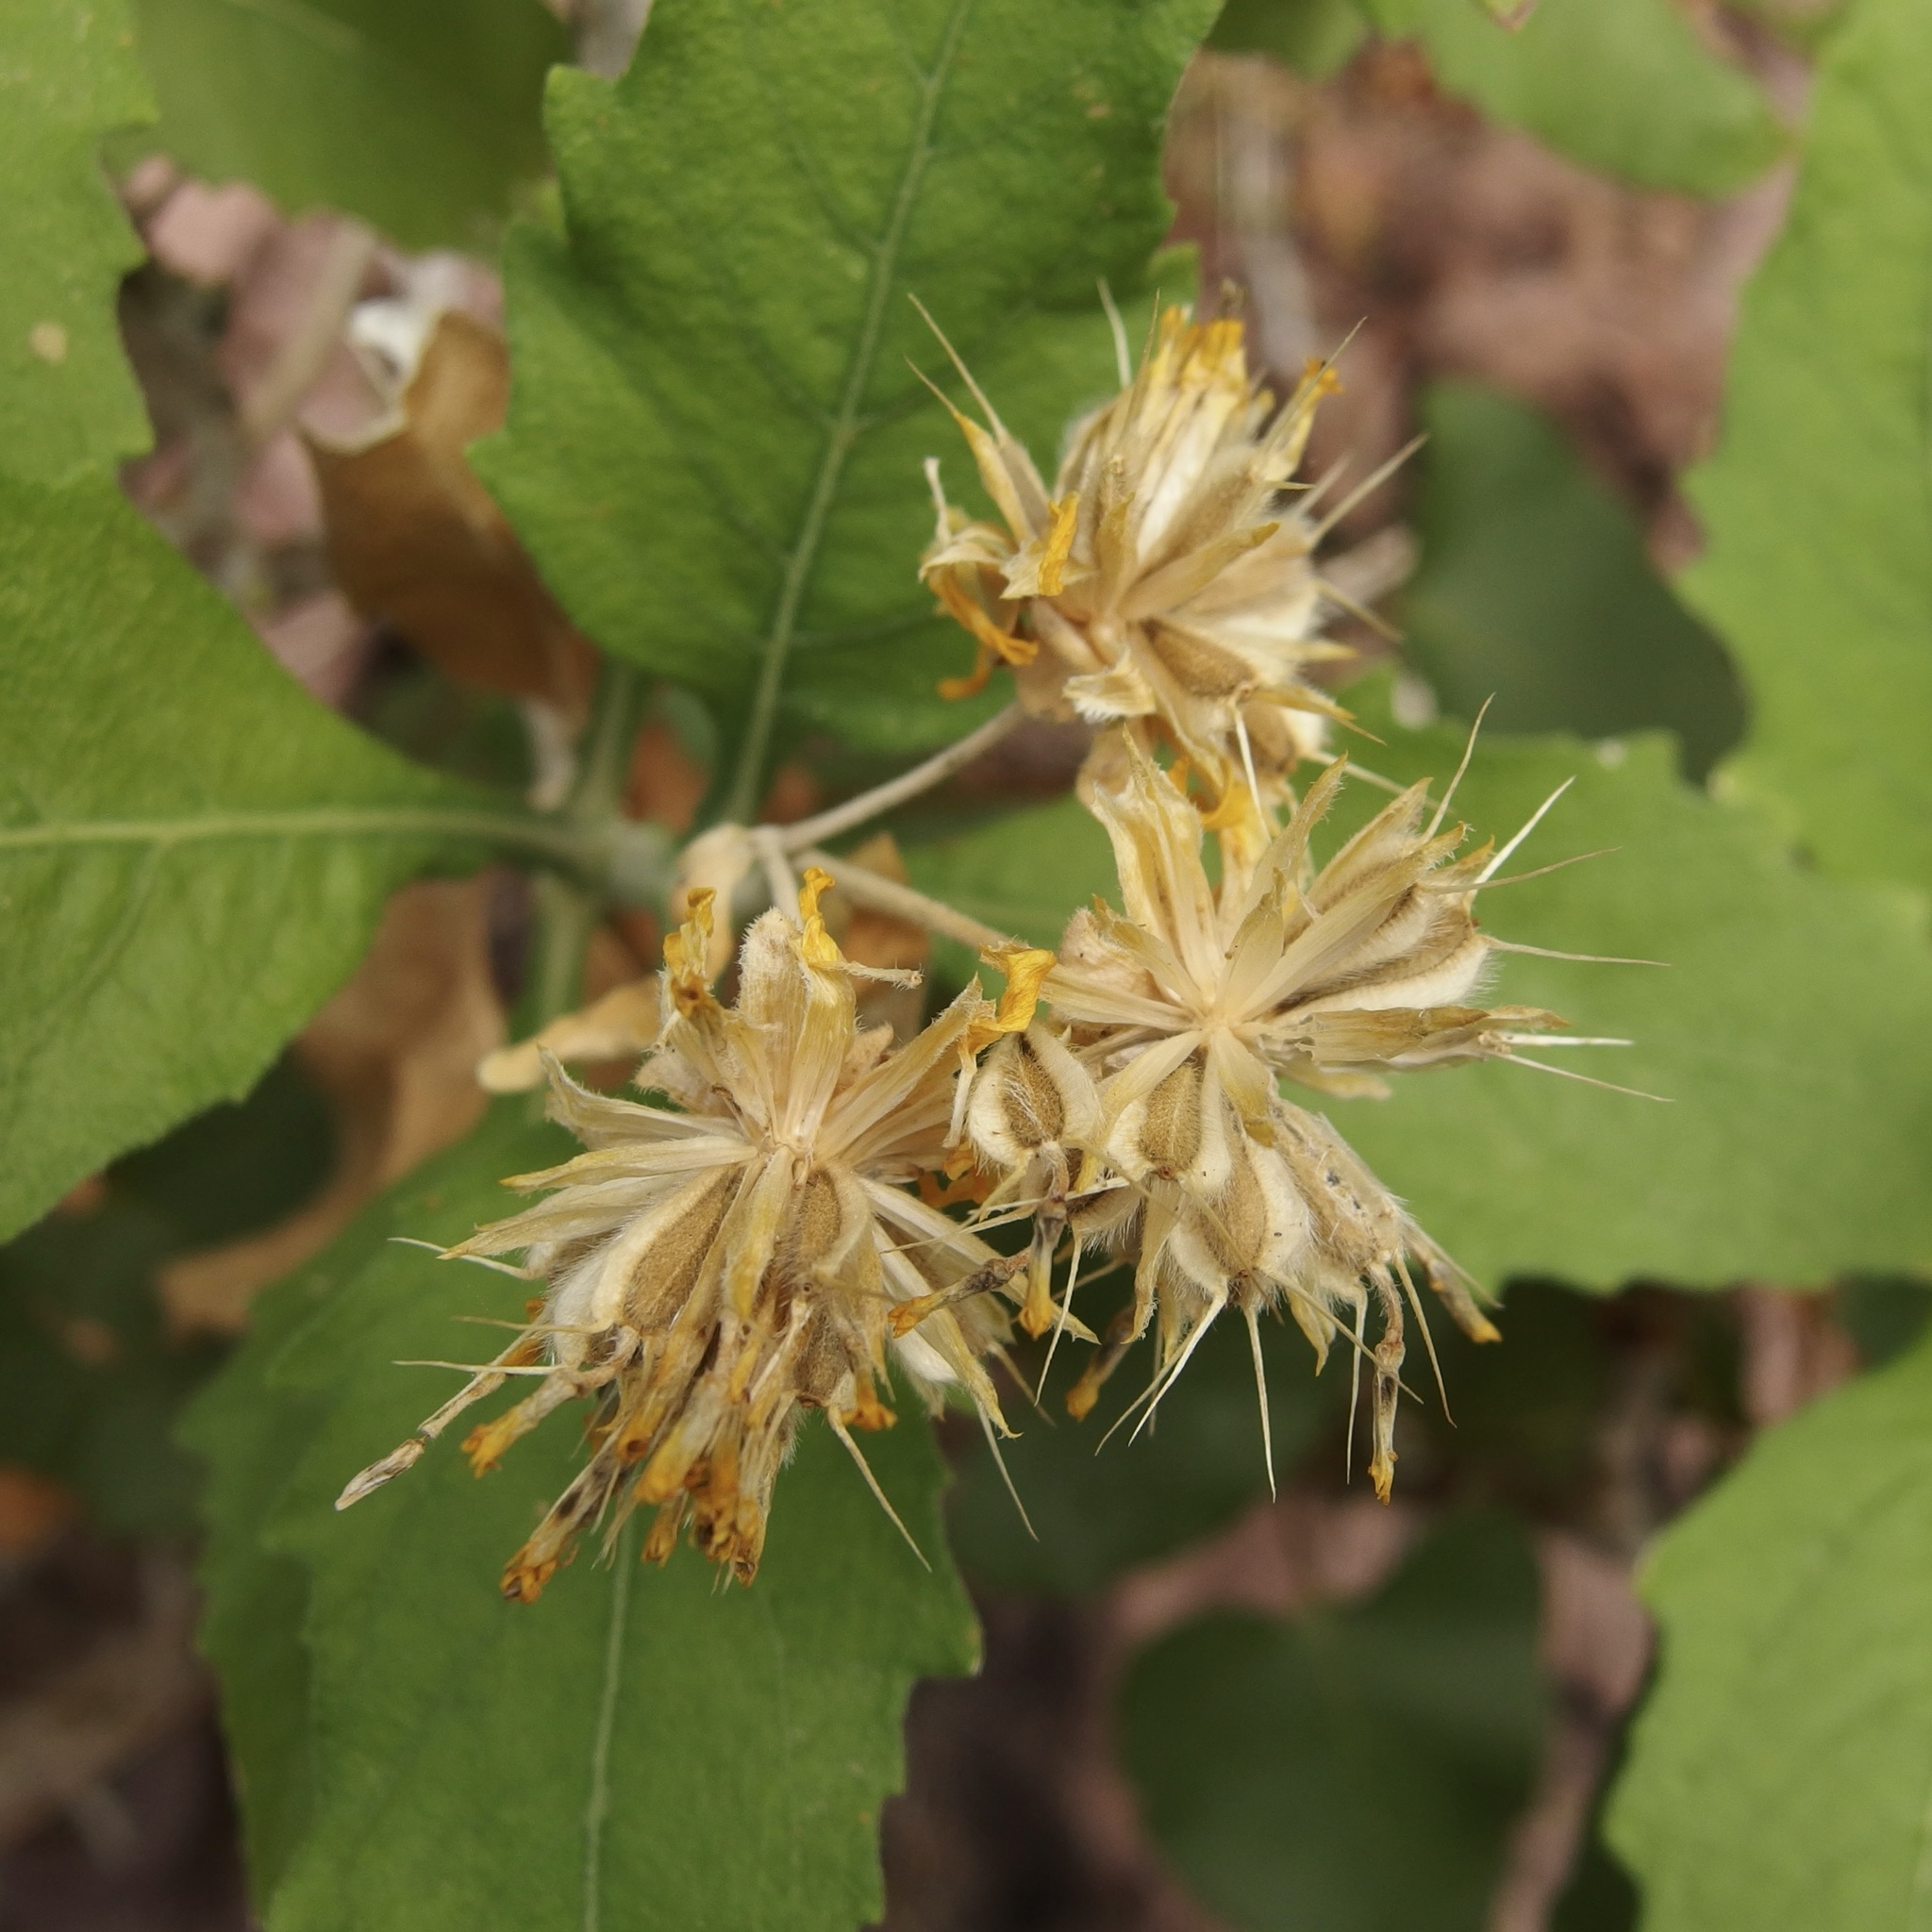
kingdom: Plantae
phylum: Tracheophyta
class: Magnoliopsida
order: Asterales
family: Asteraceae
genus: Verbesina
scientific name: Verbesina oligocephala
